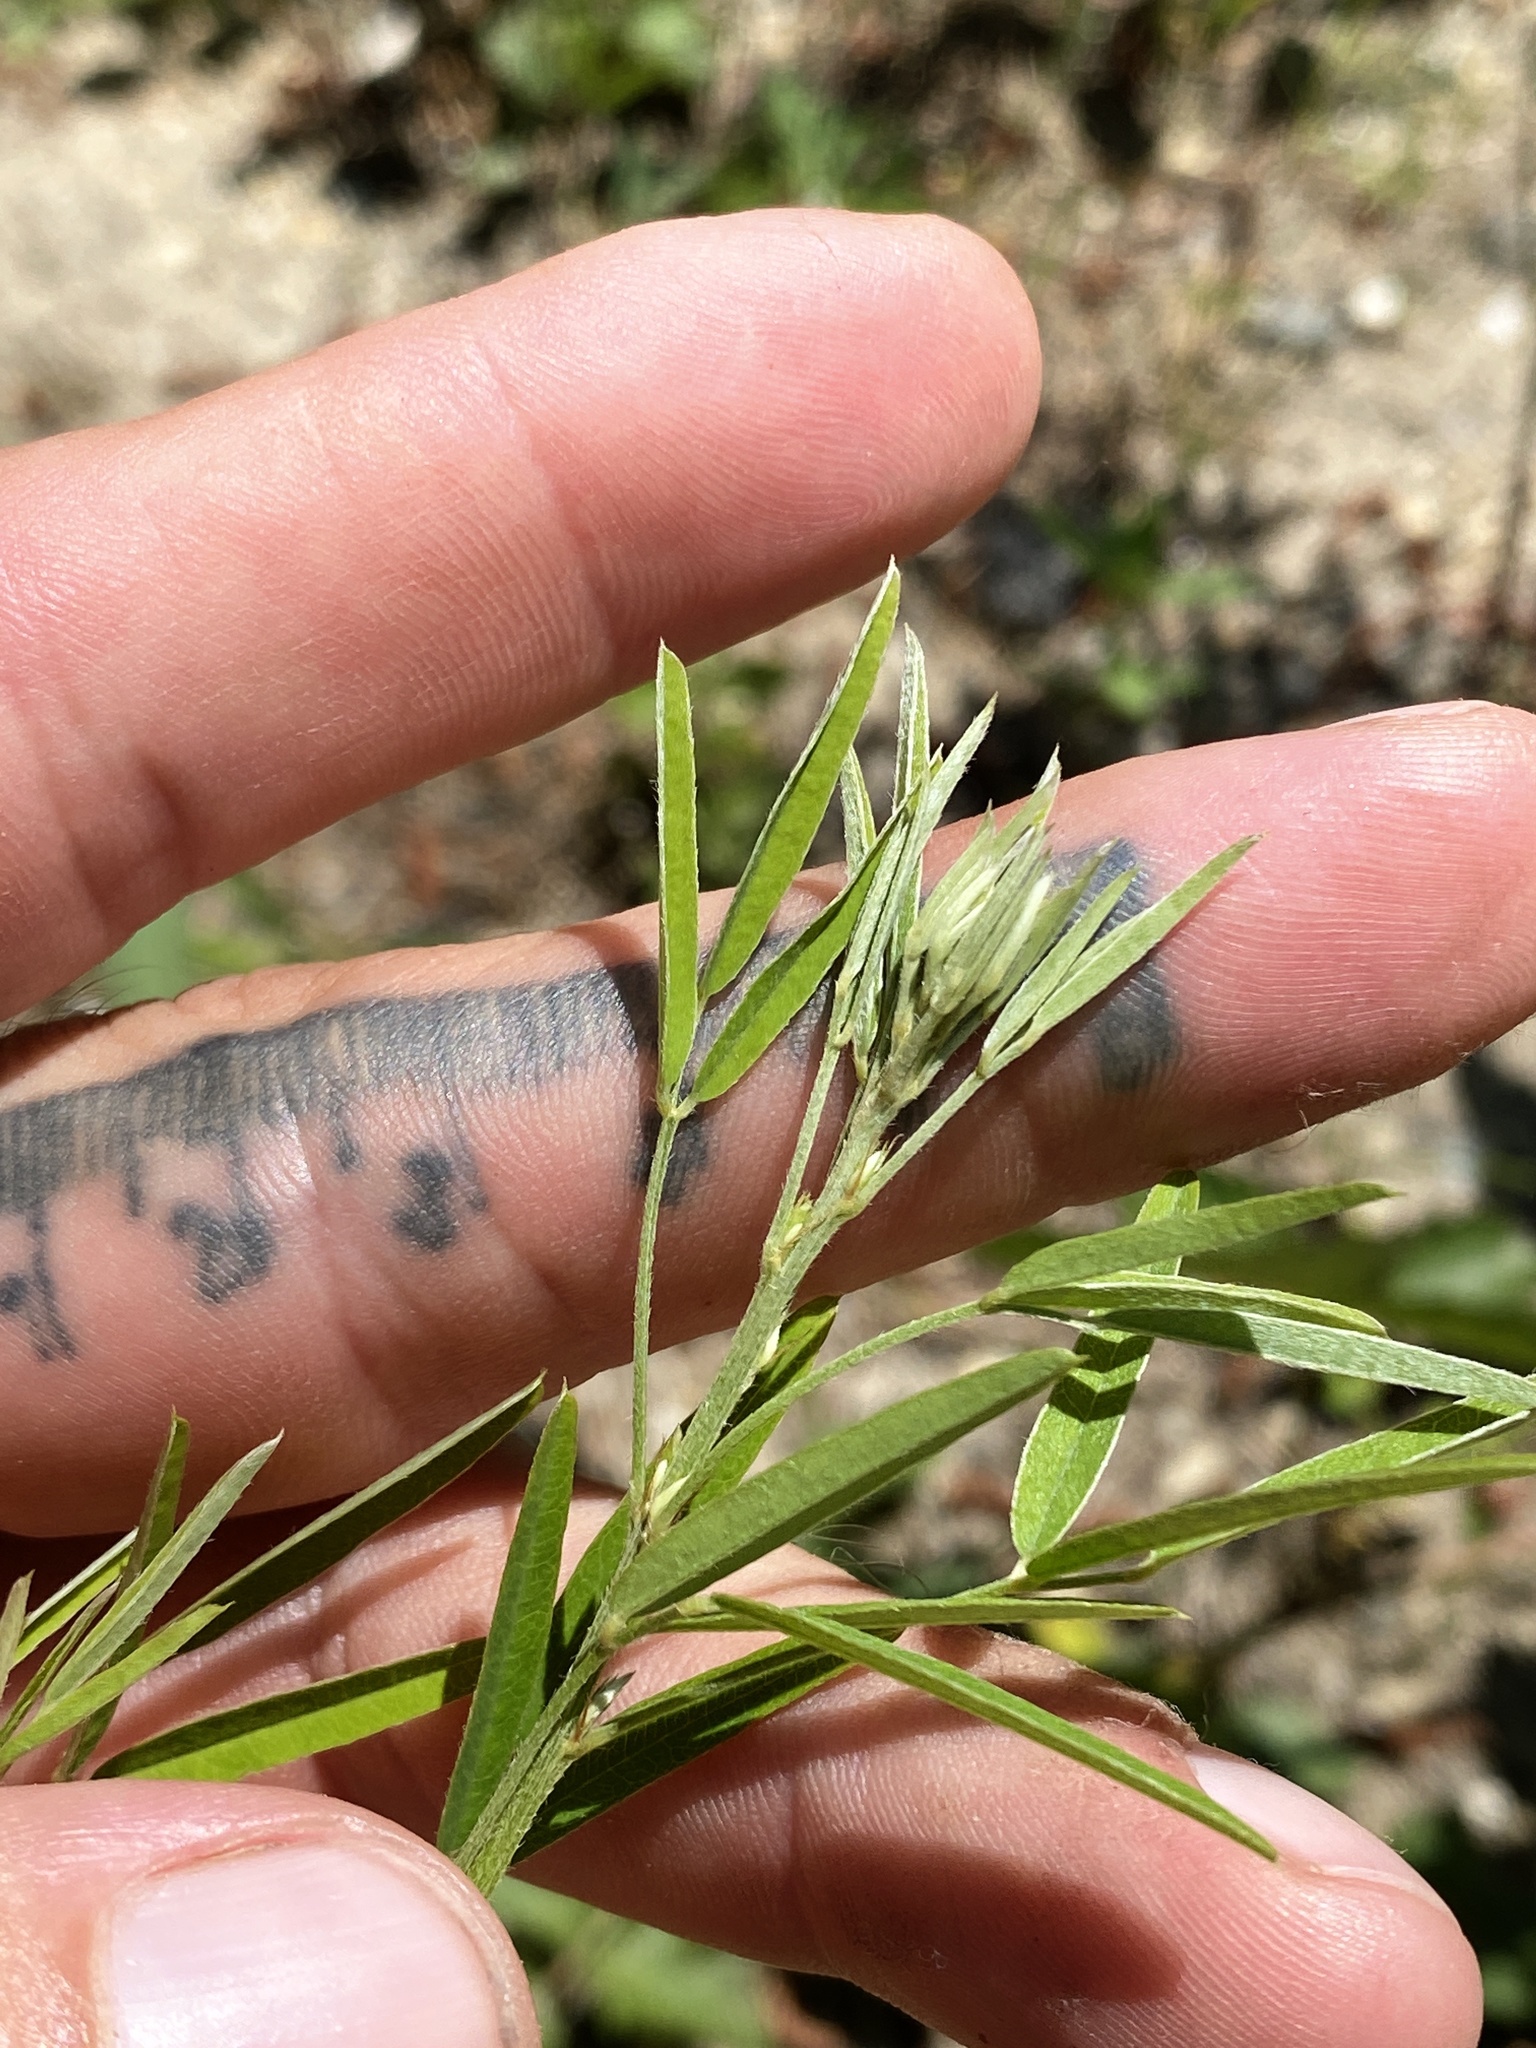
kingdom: Plantae
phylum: Tracheophyta
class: Magnoliopsida
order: Fabales
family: Fabaceae
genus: Lespedeza
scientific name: Lespedeza virginica
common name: Slender bush-clover
